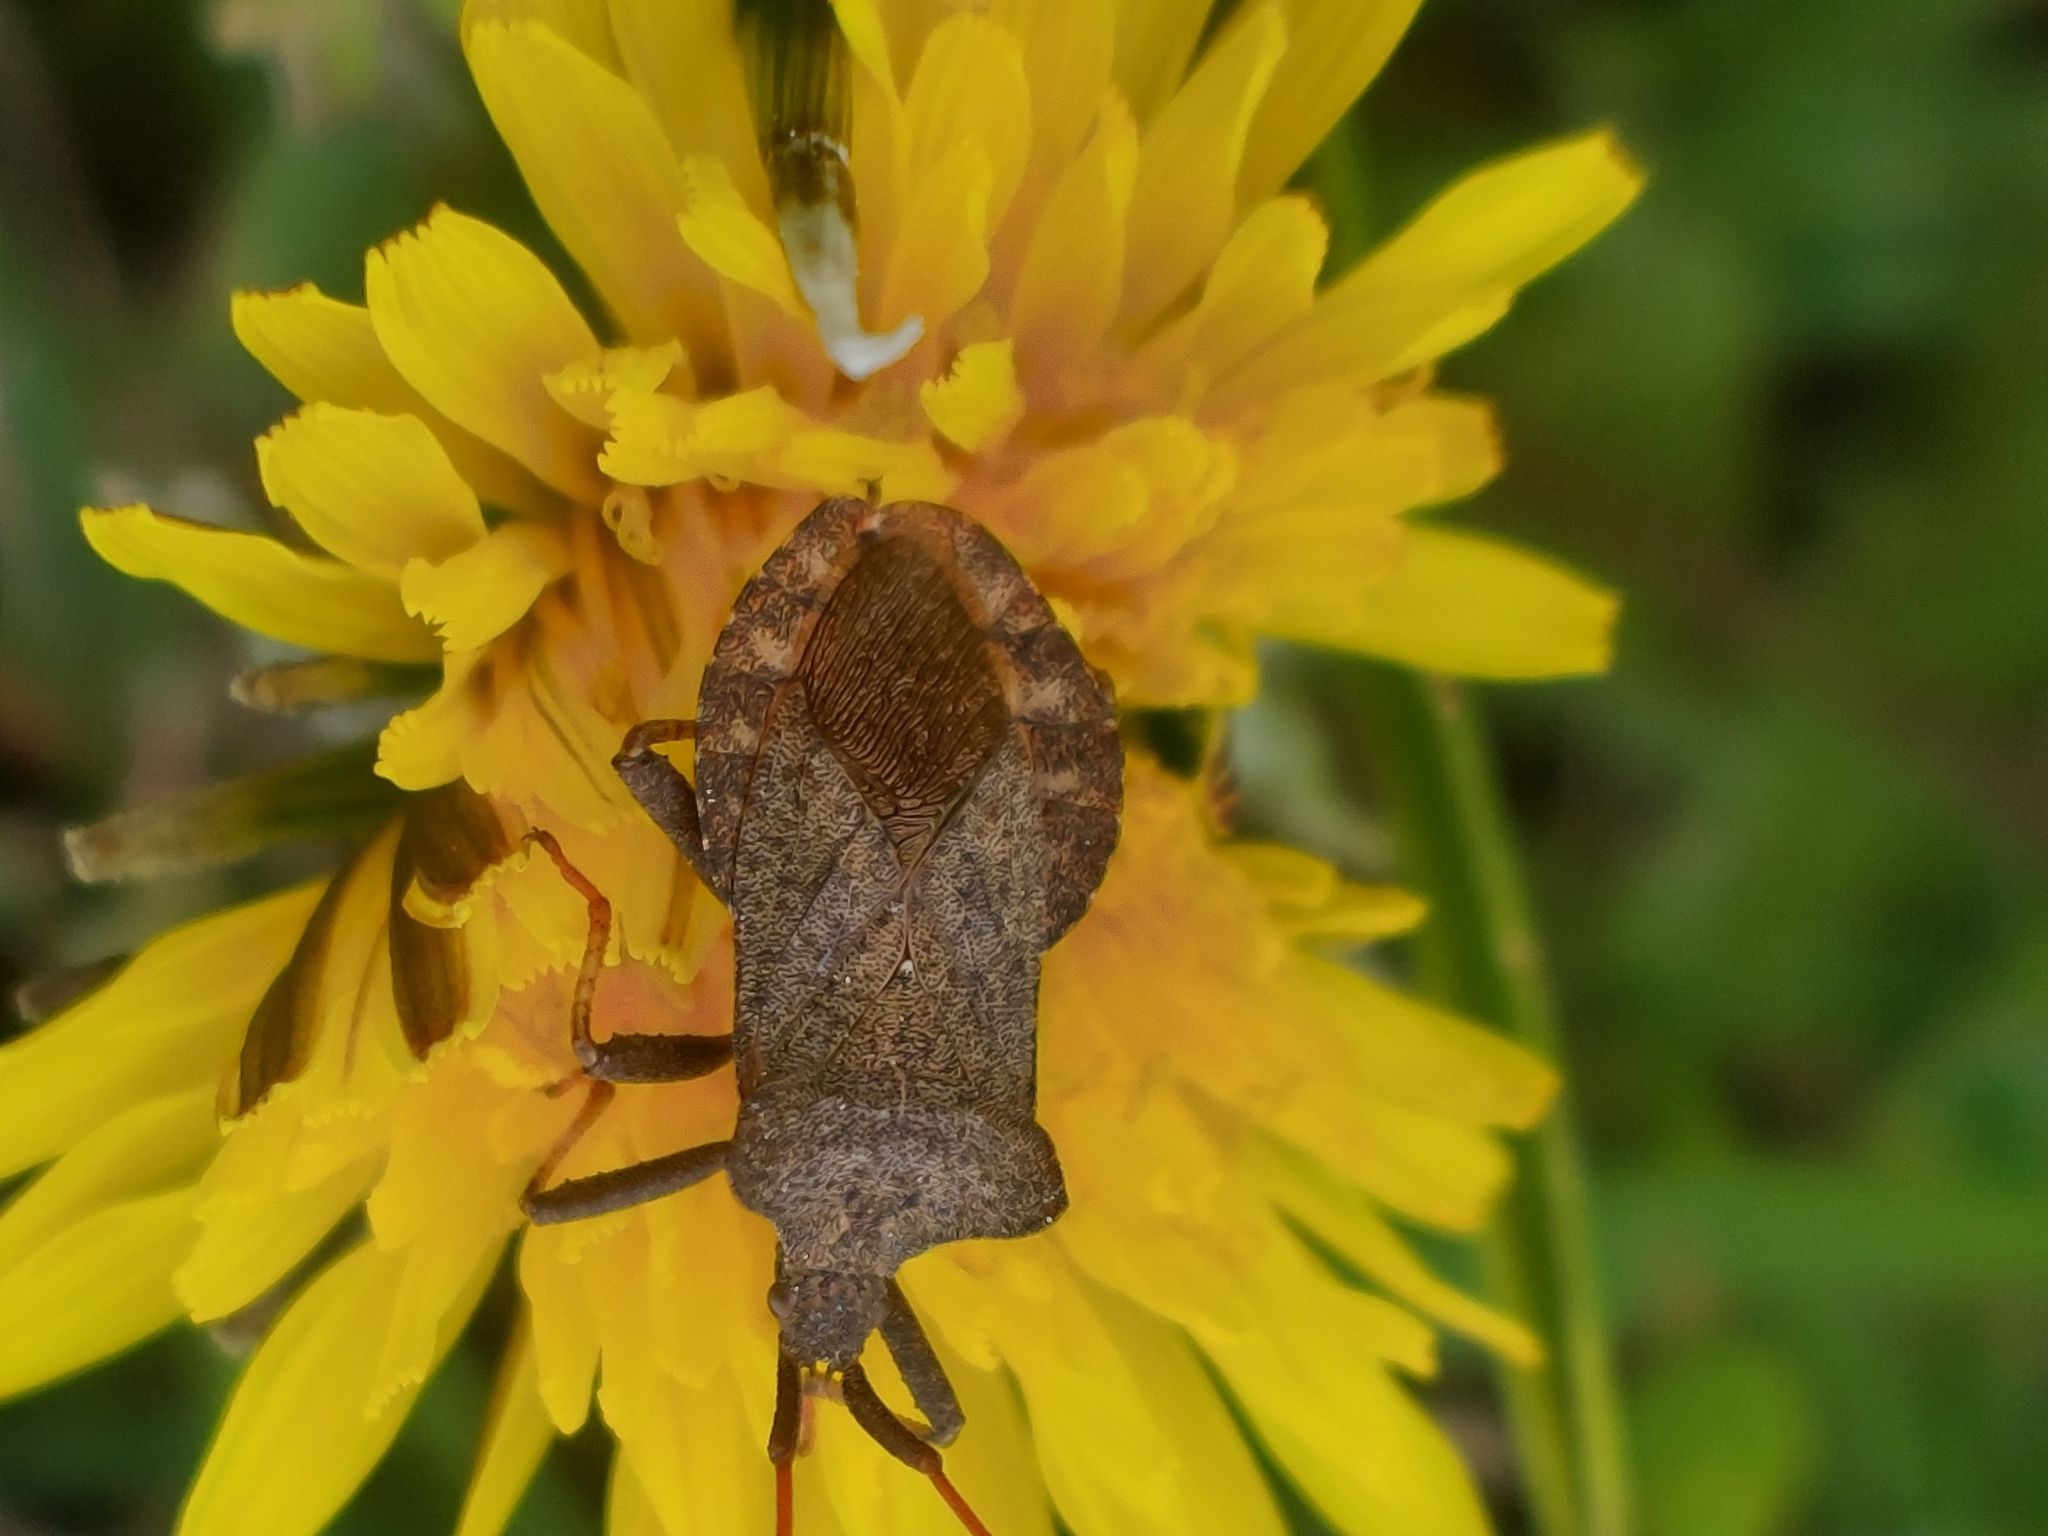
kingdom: Animalia
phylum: Arthropoda
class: Insecta
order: Hemiptera
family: Coreidae
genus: Coreus
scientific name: Coreus marginatus
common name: Dock bug
